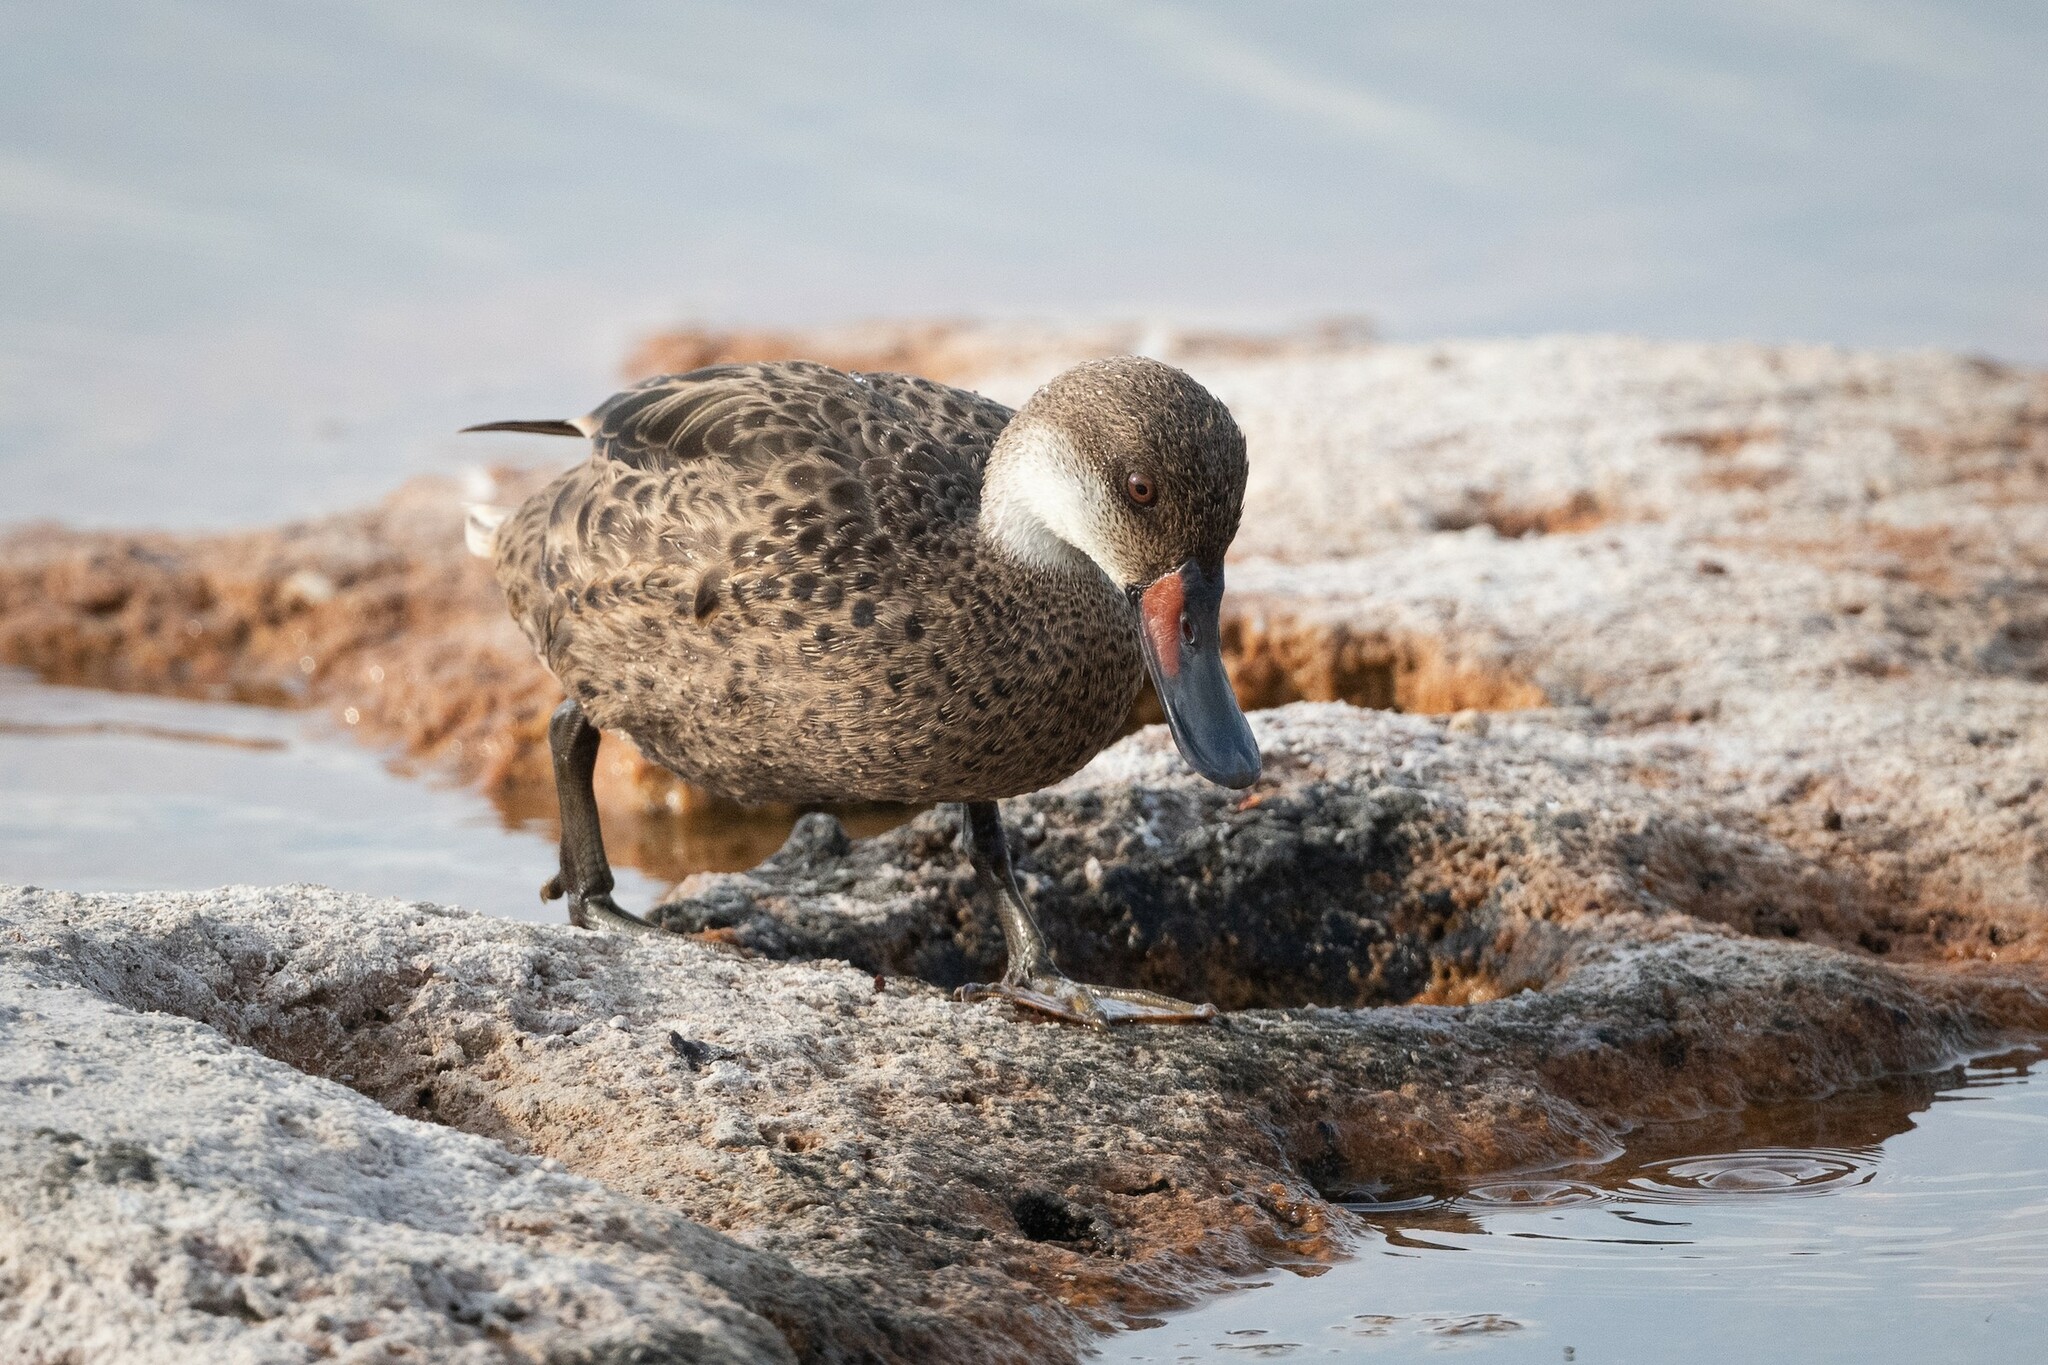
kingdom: Animalia
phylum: Chordata
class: Aves
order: Anseriformes
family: Anatidae
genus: Anas
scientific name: Anas bahamensis
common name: White-cheeked pintail
